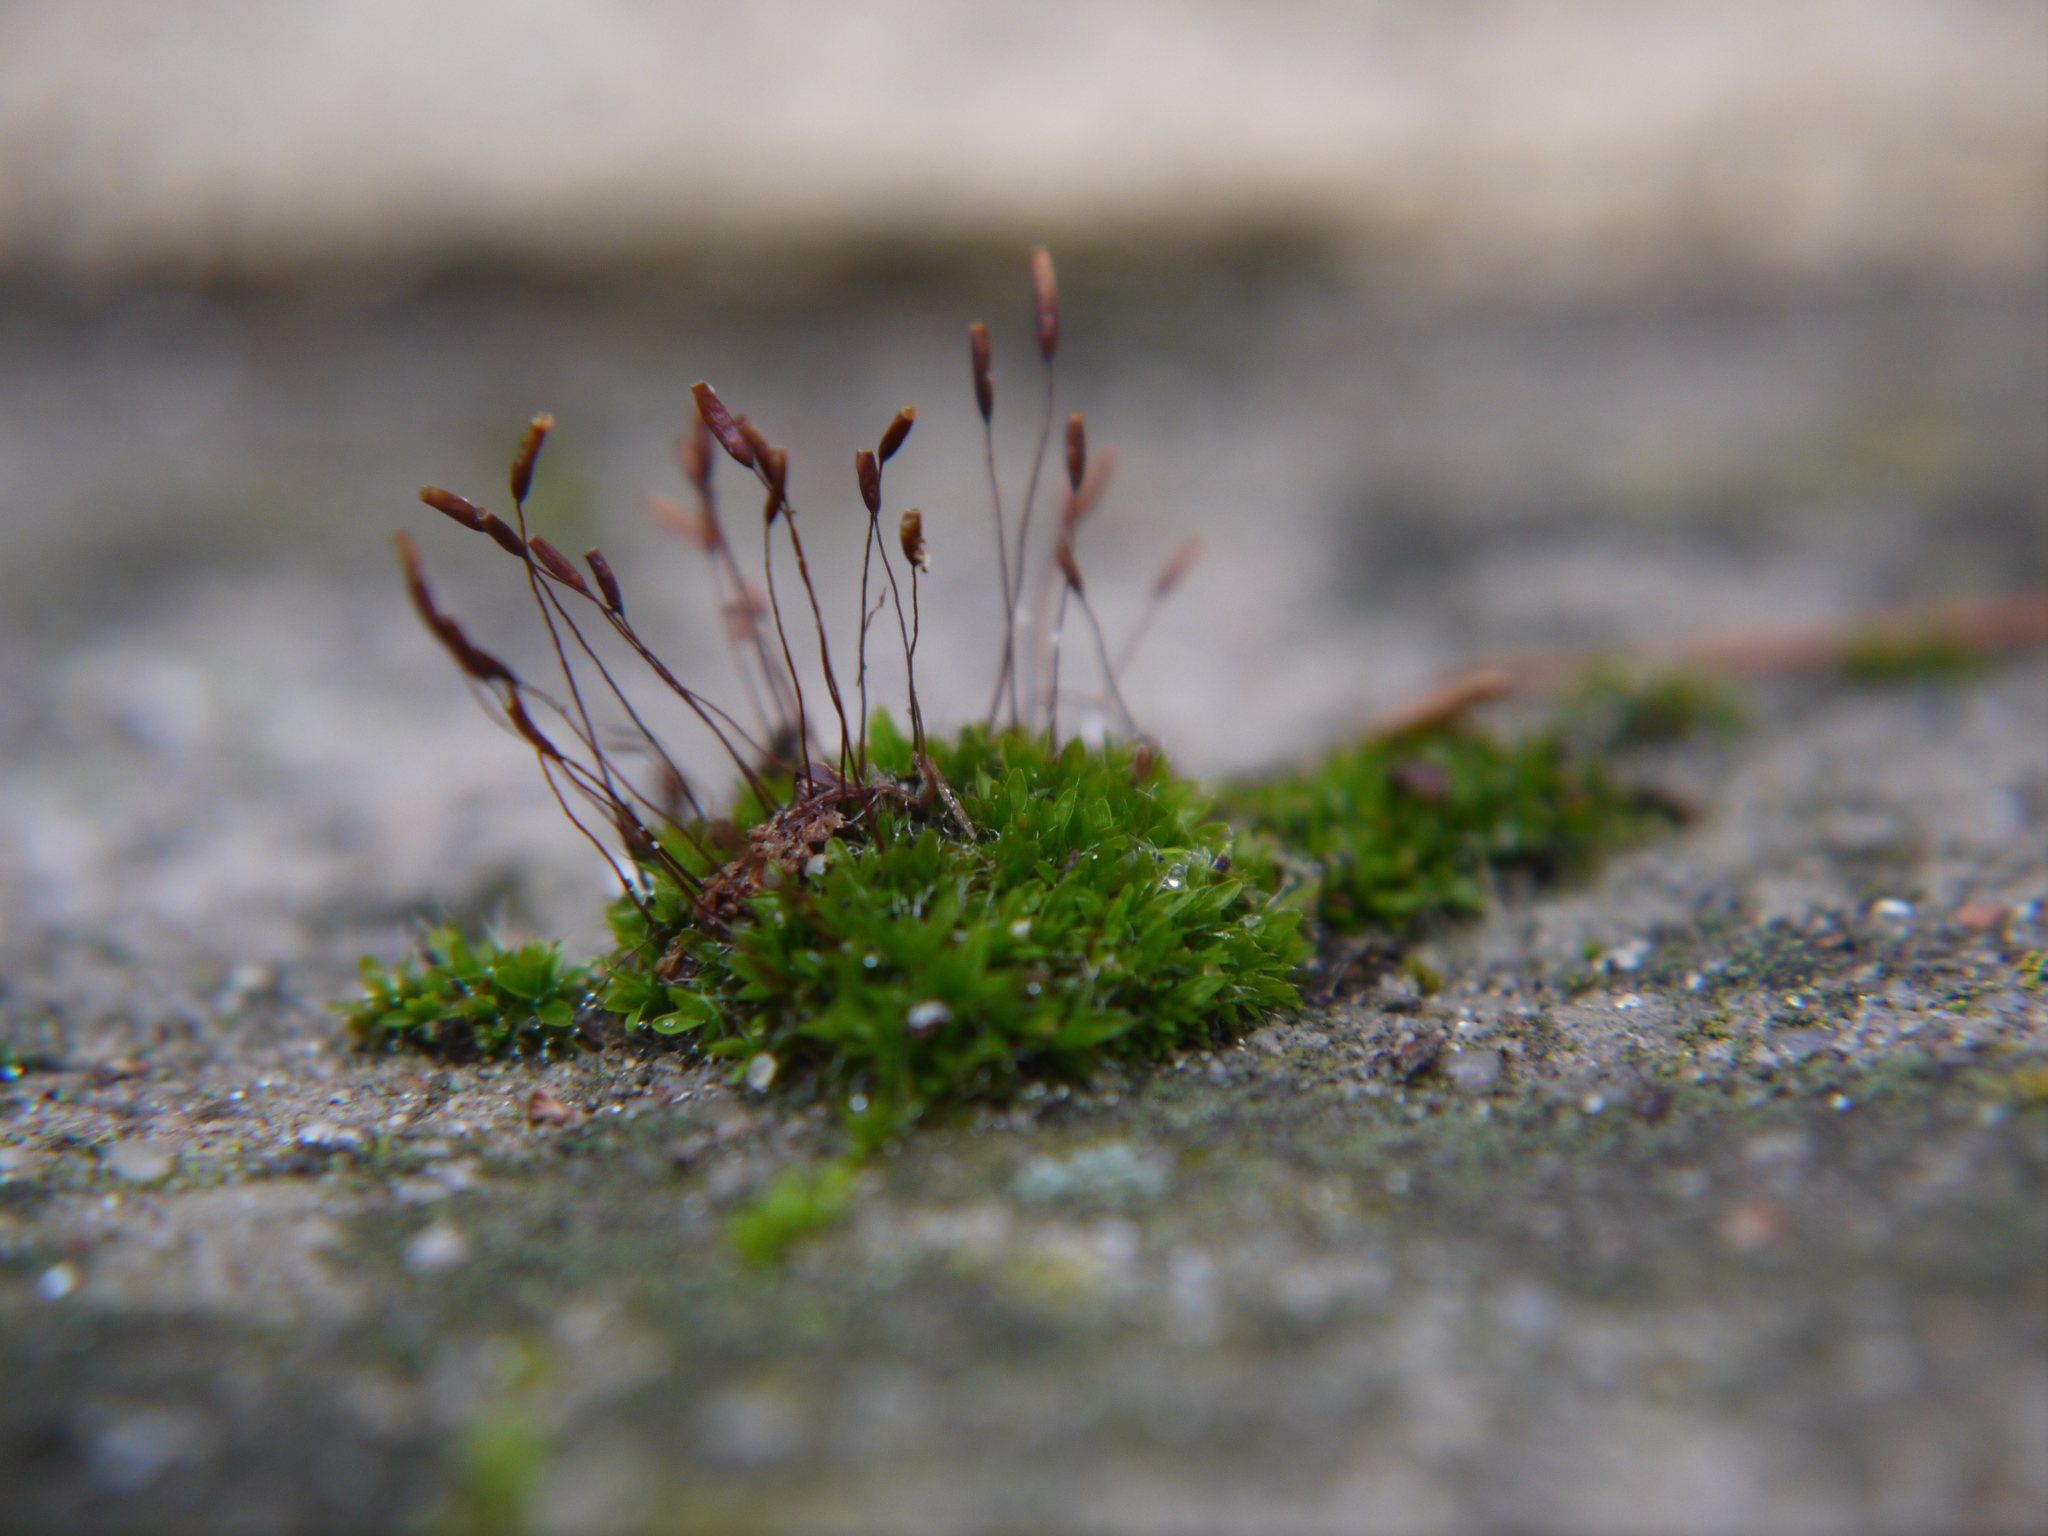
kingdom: Plantae
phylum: Bryophyta
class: Bryopsida
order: Pottiales
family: Pottiaceae
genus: Tortula
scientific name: Tortula muralis
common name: Wall screw-moss
